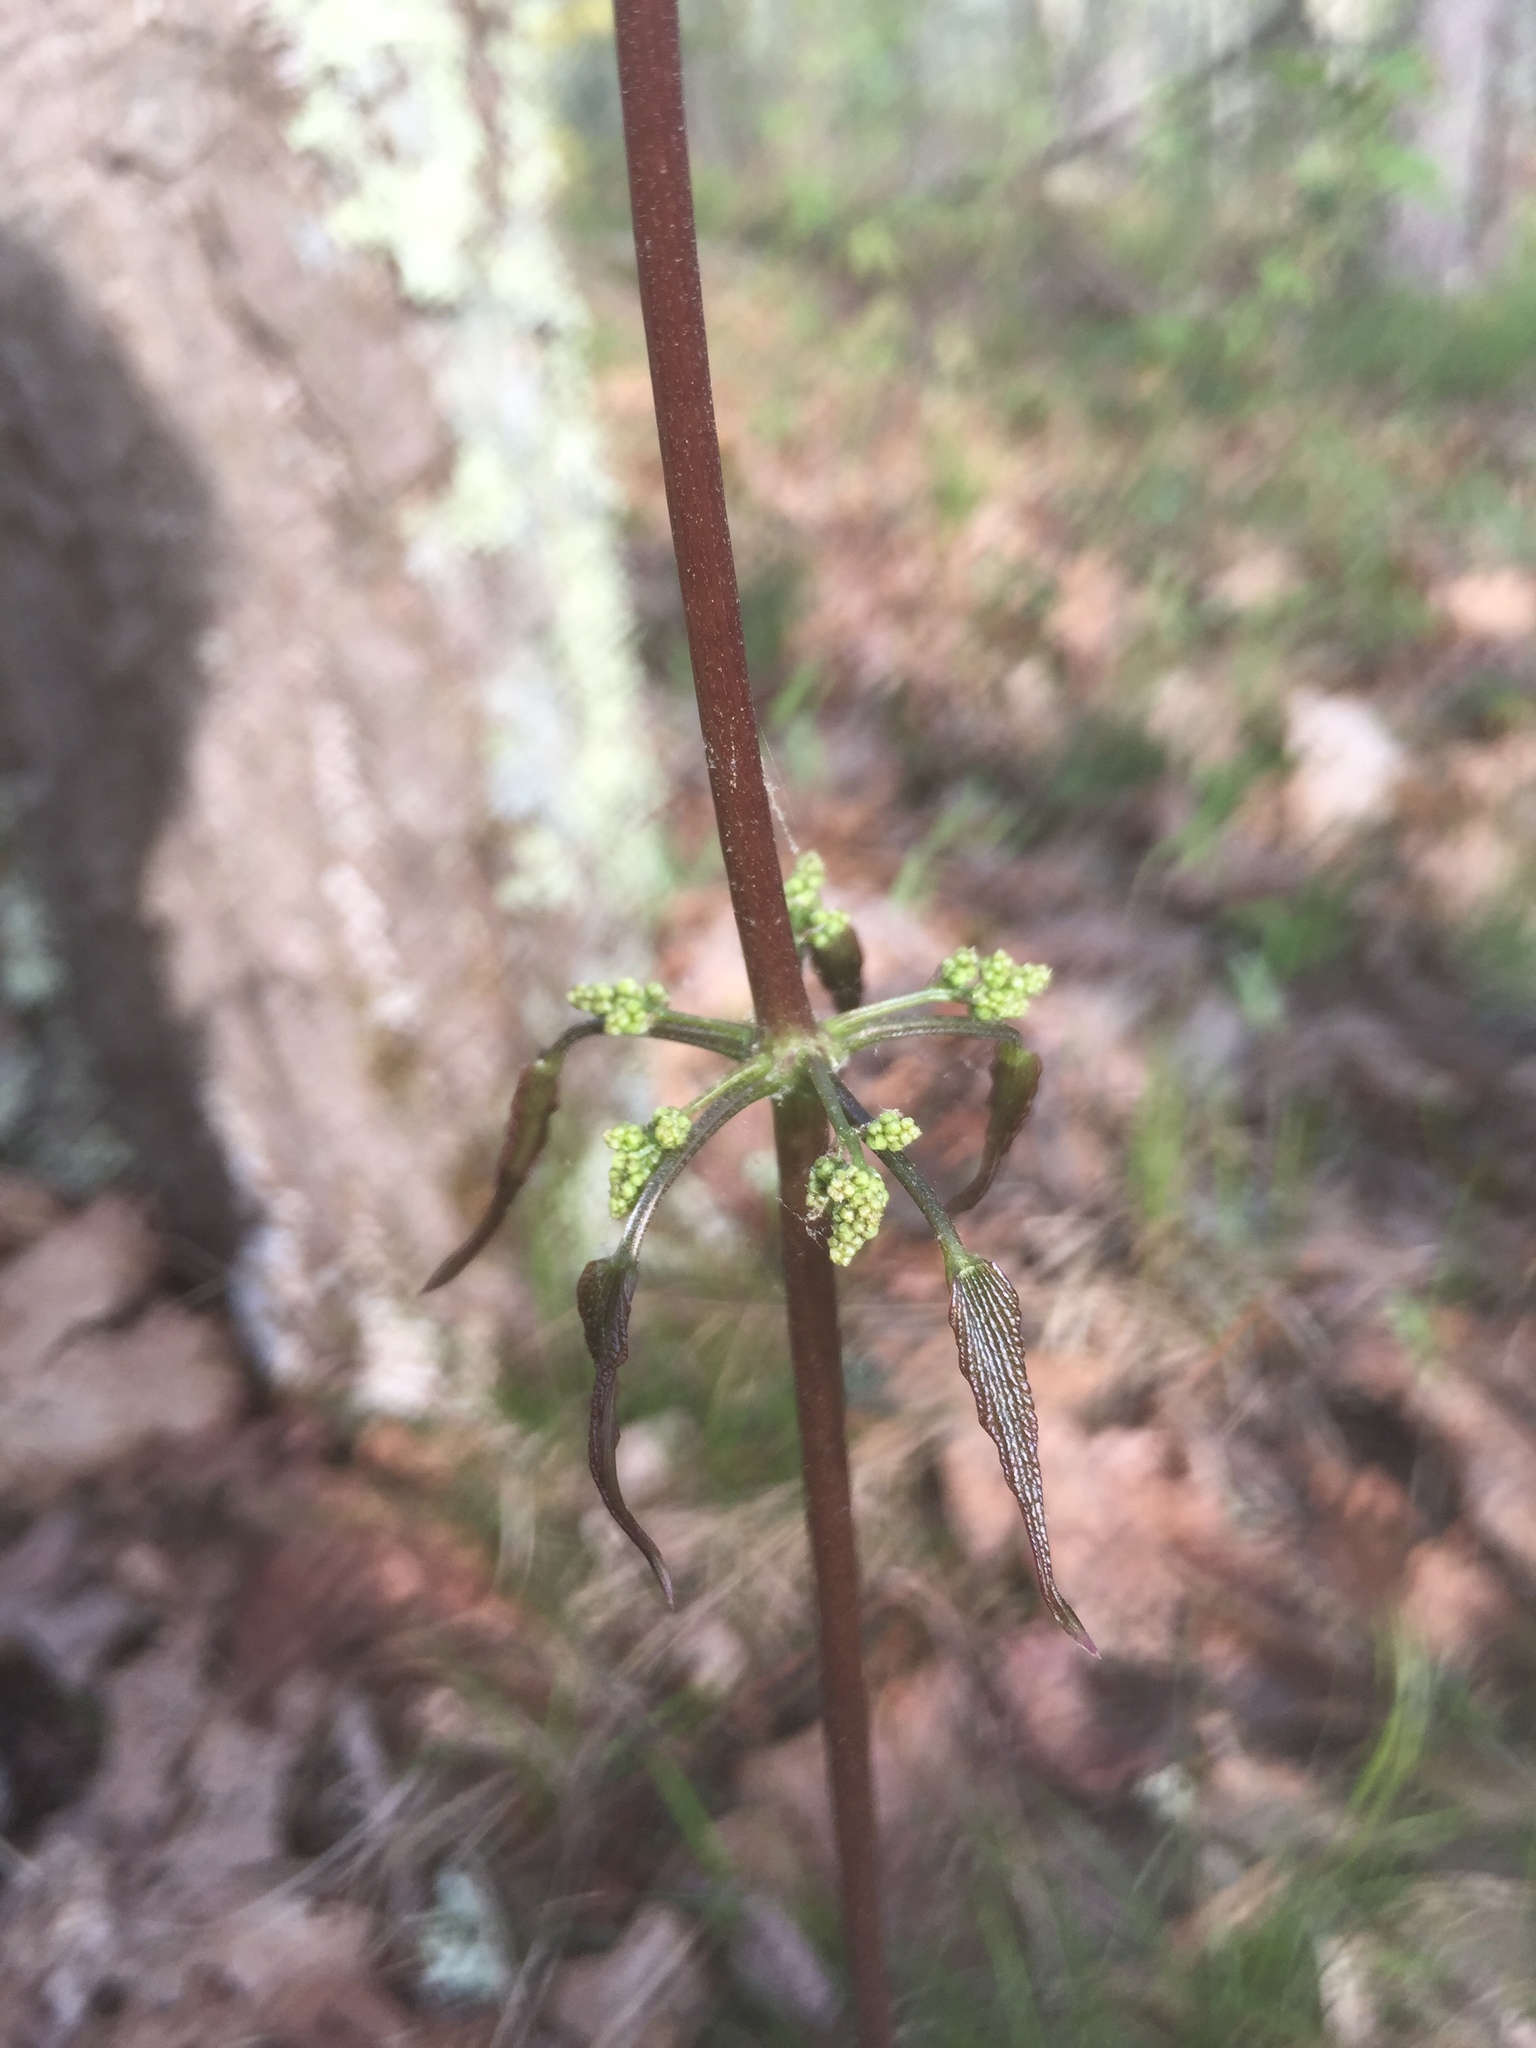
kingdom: Plantae
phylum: Tracheophyta
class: Liliopsida
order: Dioscoreales
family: Dioscoreaceae
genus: Dioscorea
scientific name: Dioscorea villosa
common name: Wild yam
